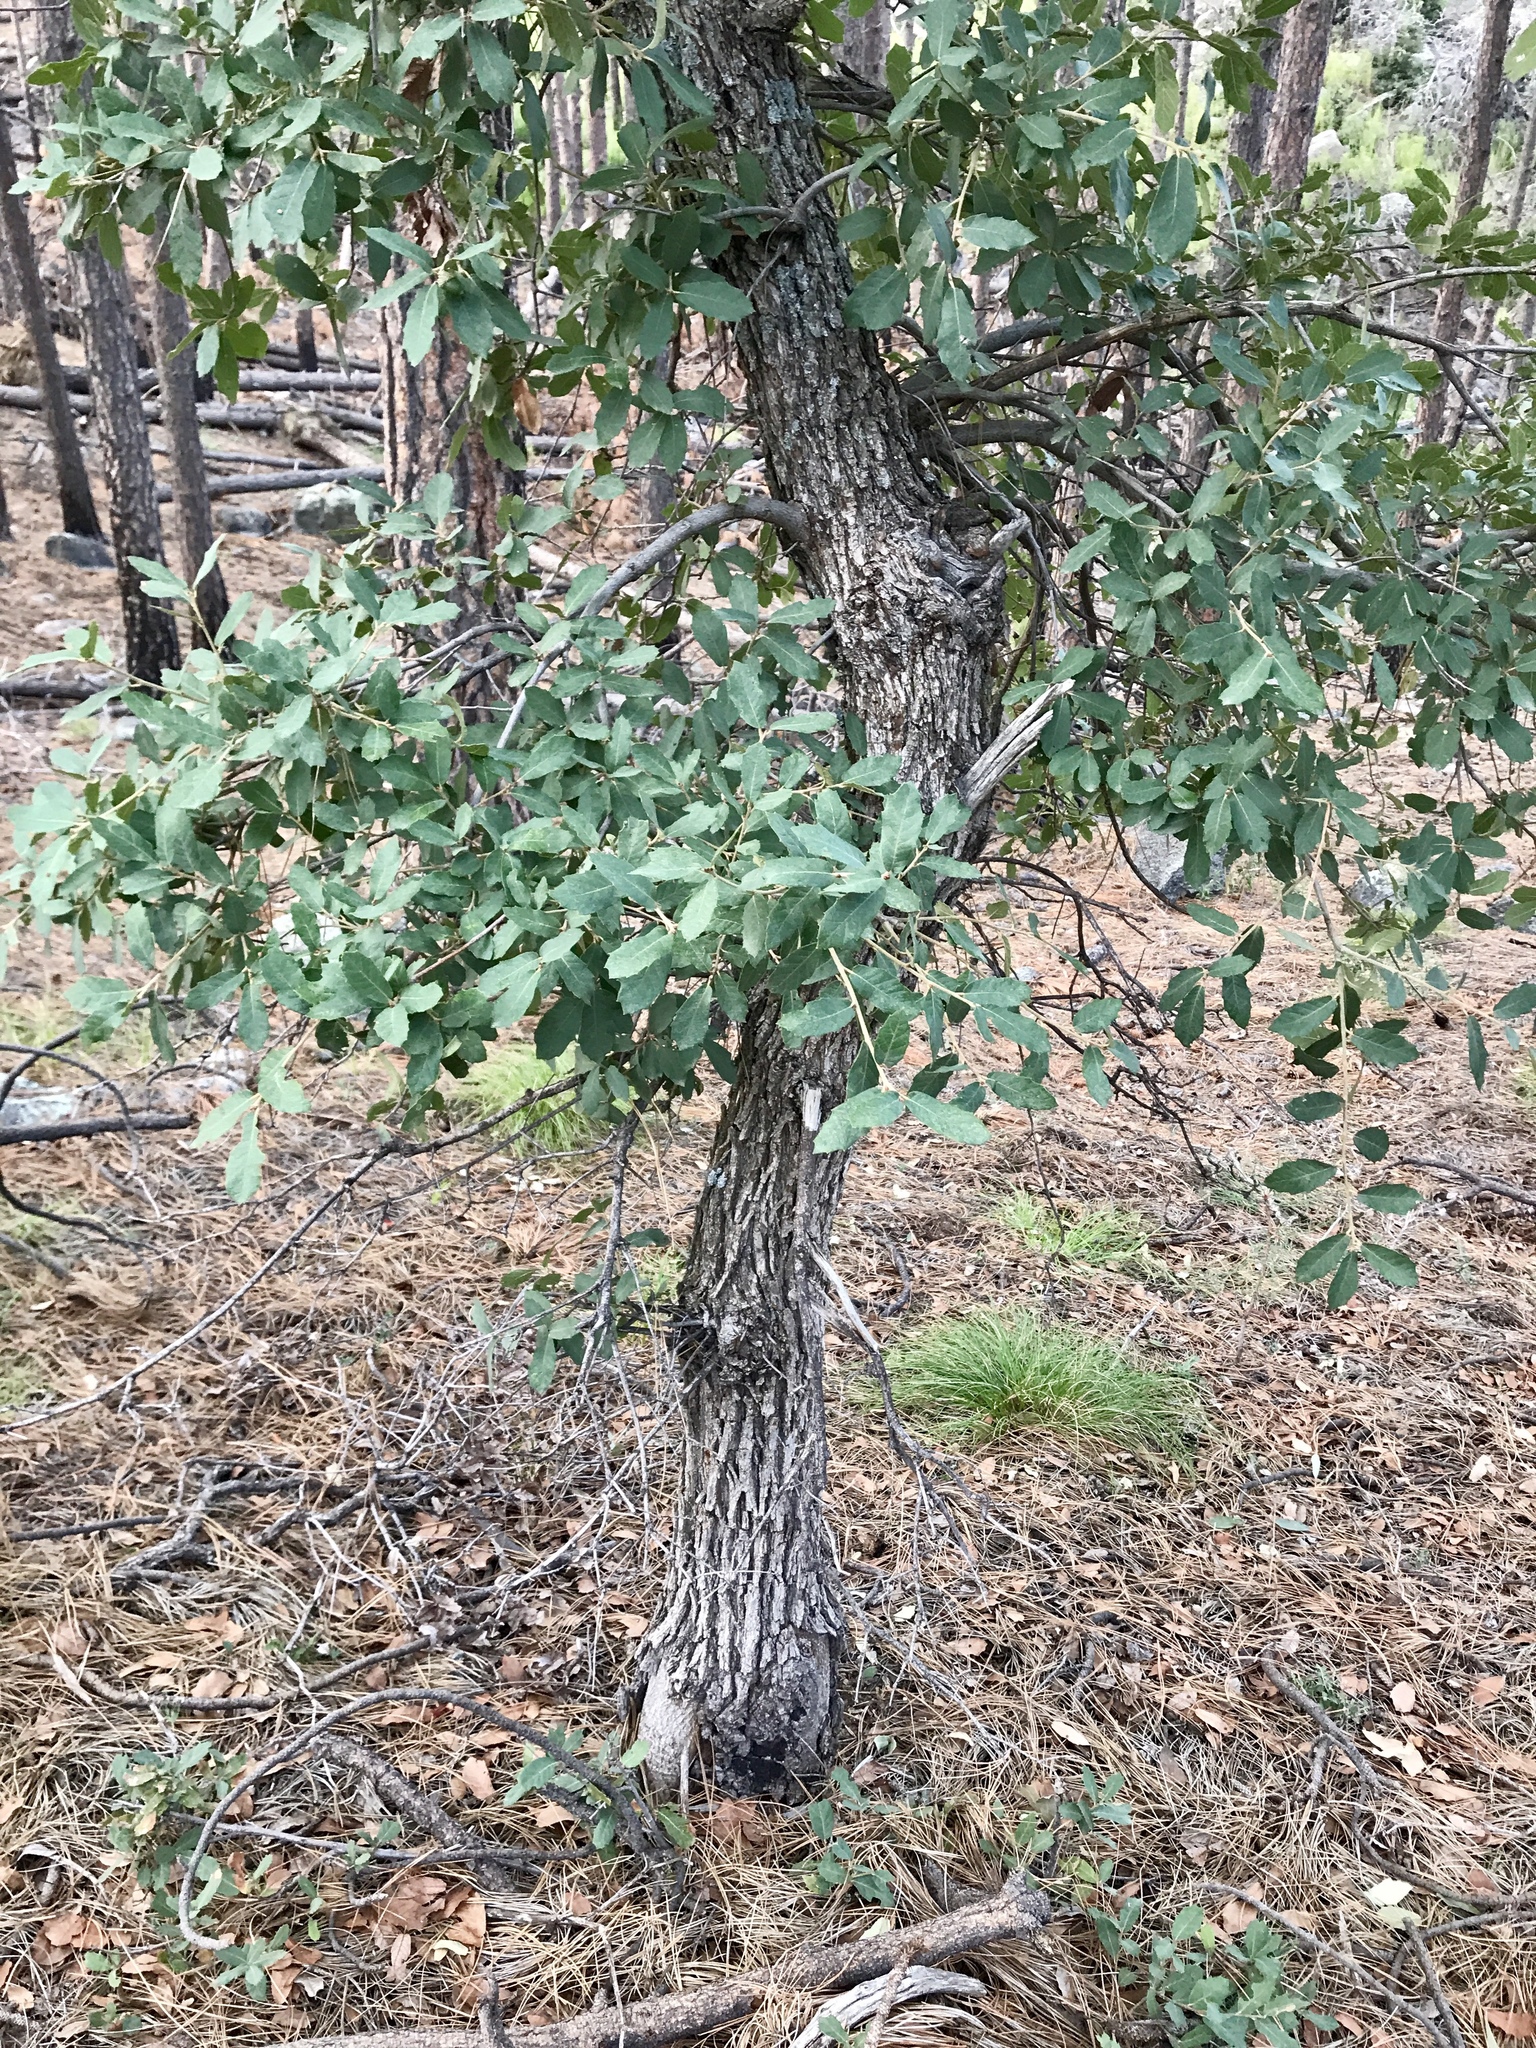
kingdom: Plantae
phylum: Tracheophyta
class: Magnoliopsida
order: Fagales
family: Fagaceae
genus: Quercus
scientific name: Quercus arizonica
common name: Arizona white oak
